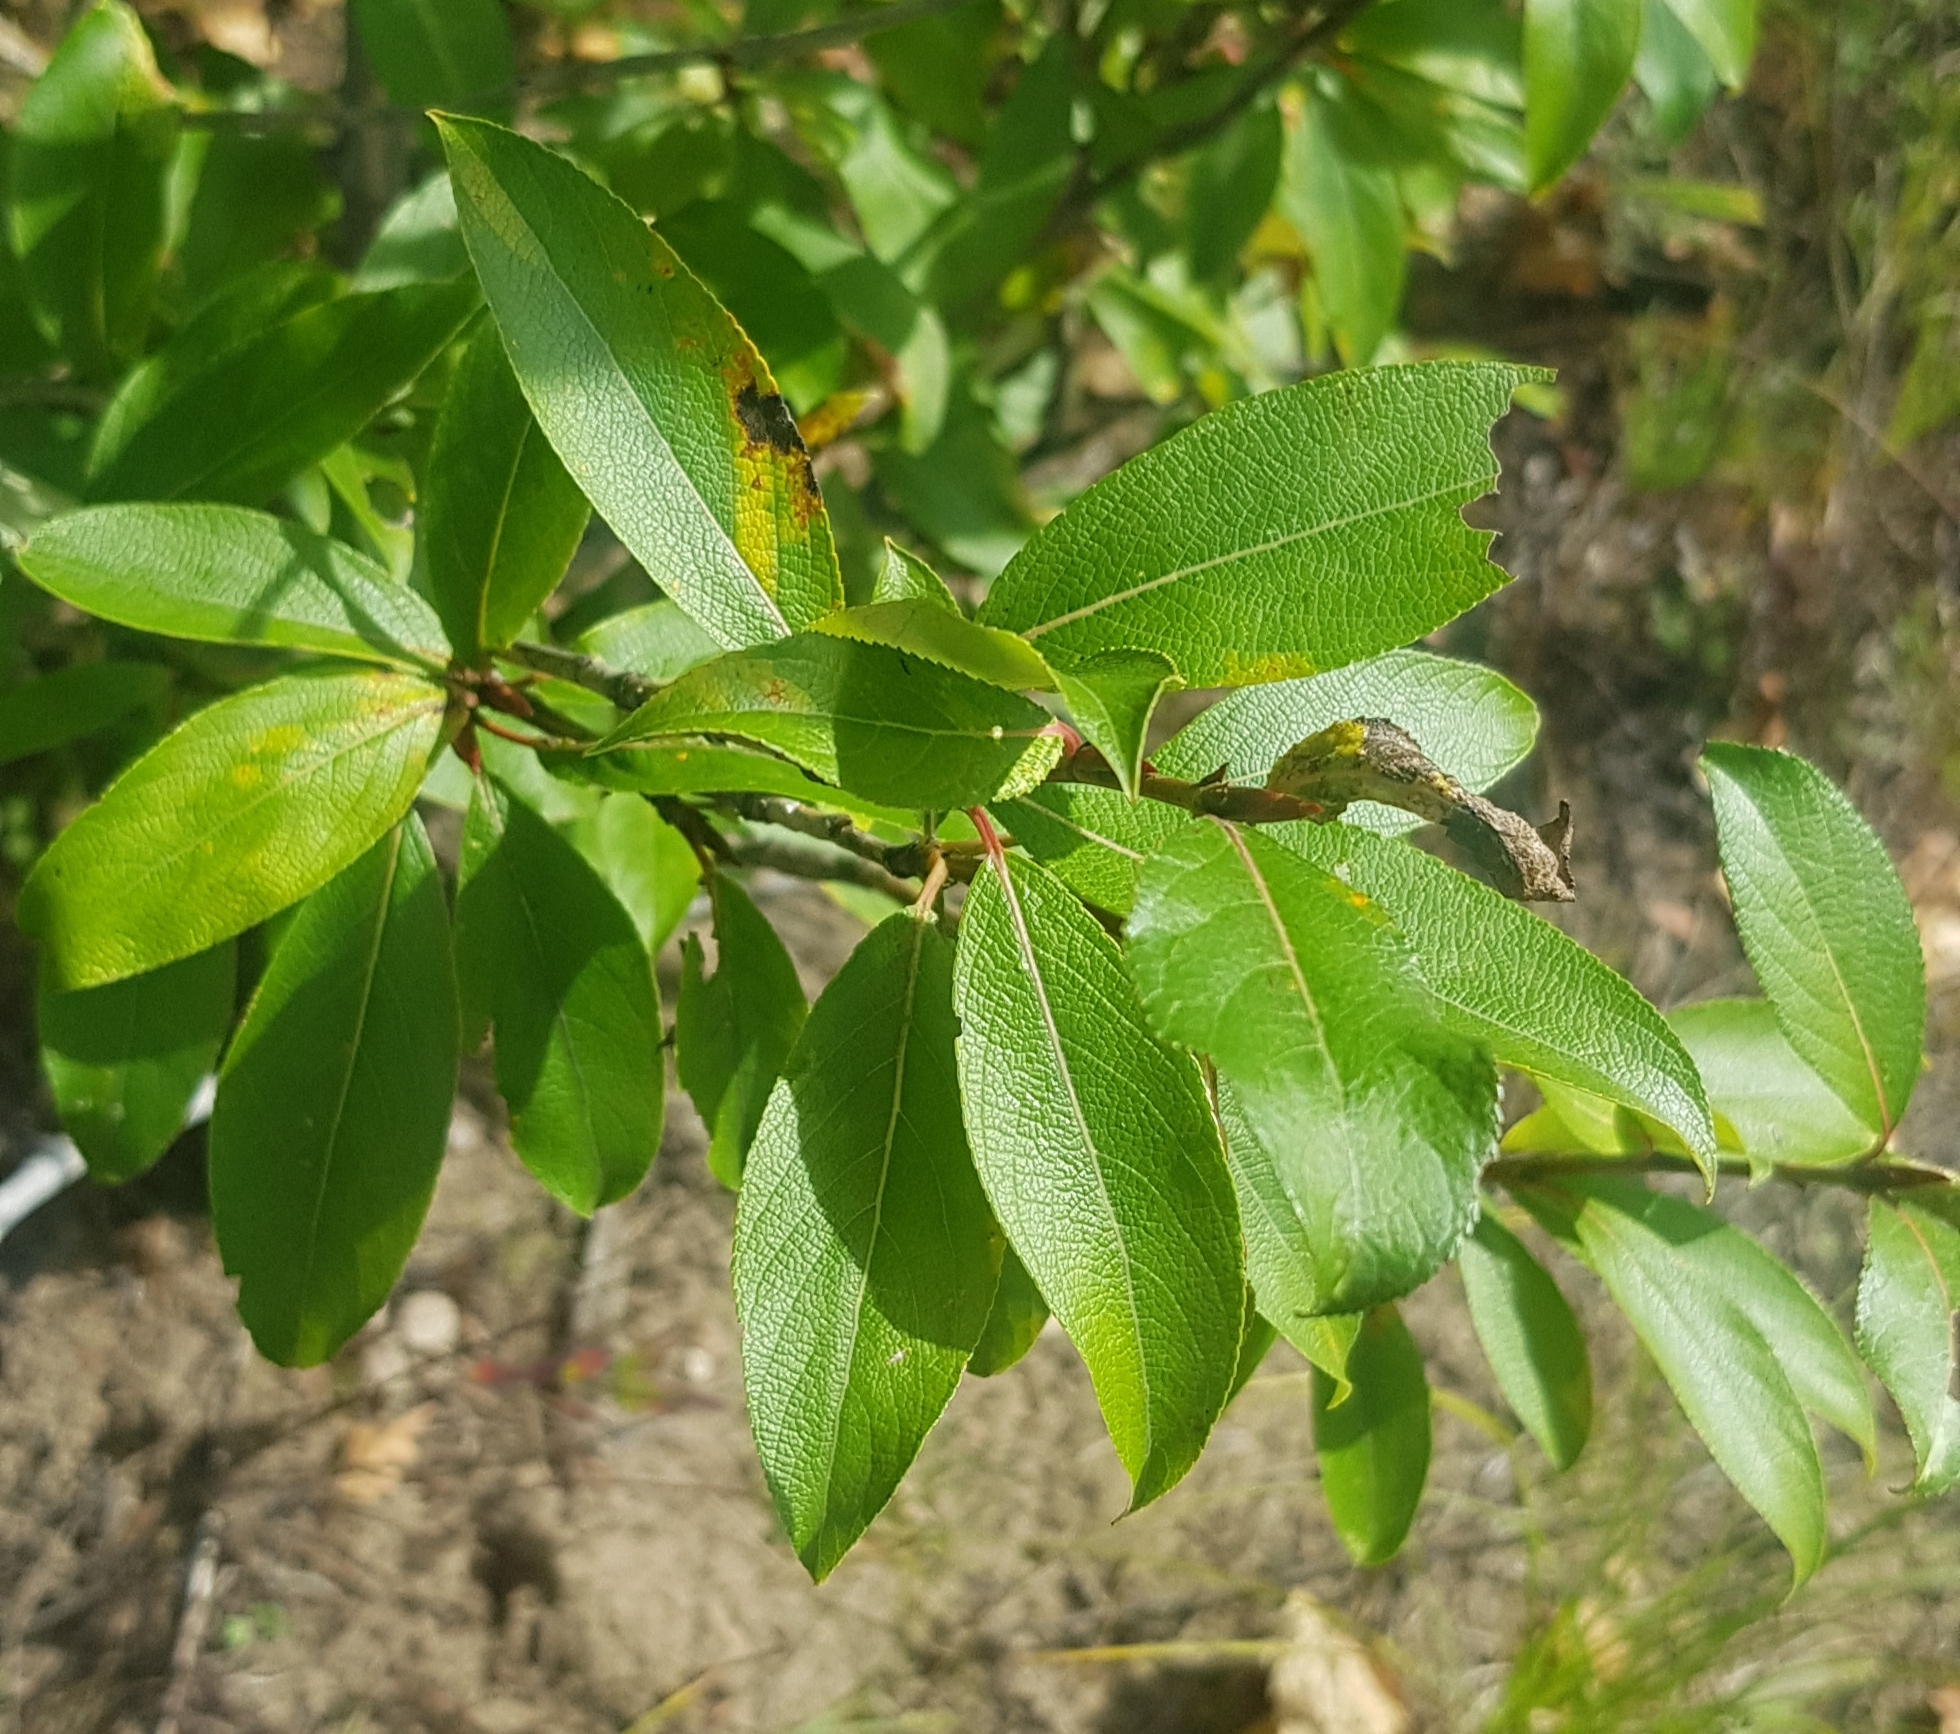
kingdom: Plantae
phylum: Tracheophyta
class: Magnoliopsida
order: Malpighiales
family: Salicaceae
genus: Populus
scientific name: Populus suaveolens
